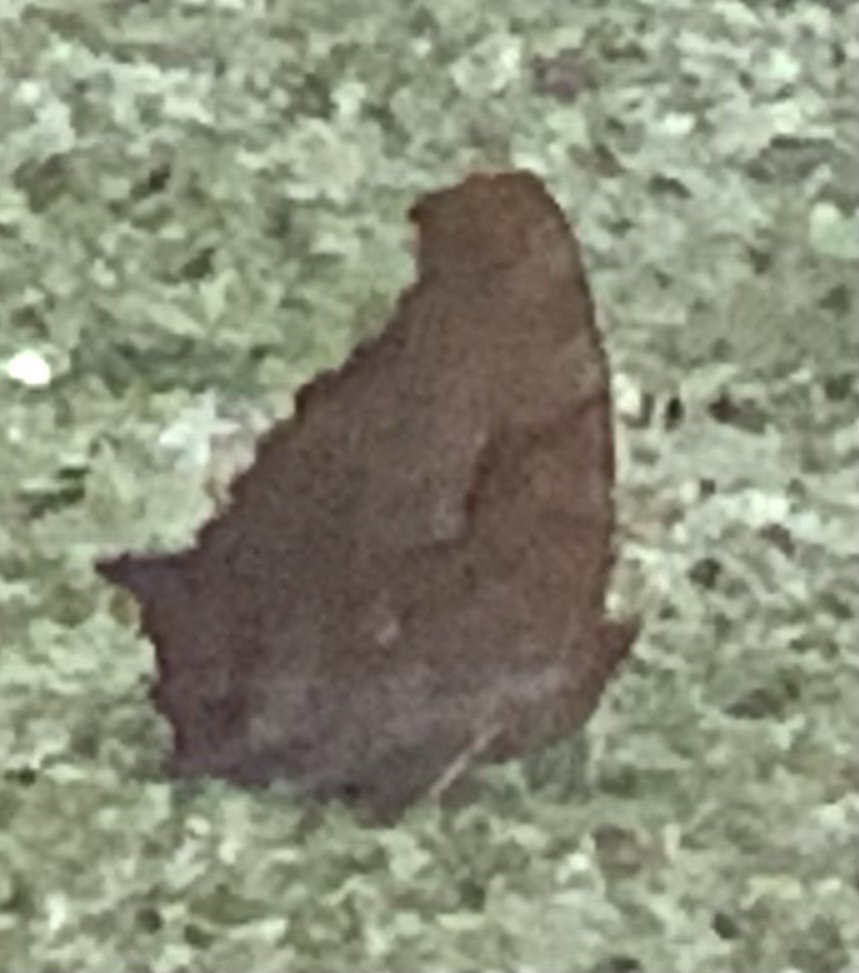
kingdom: Animalia
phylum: Arthropoda
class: Insecta
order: Lepidoptera
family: Nymphalidae
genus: Polygonia
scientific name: Polygonia interrogationis
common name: Question mark
